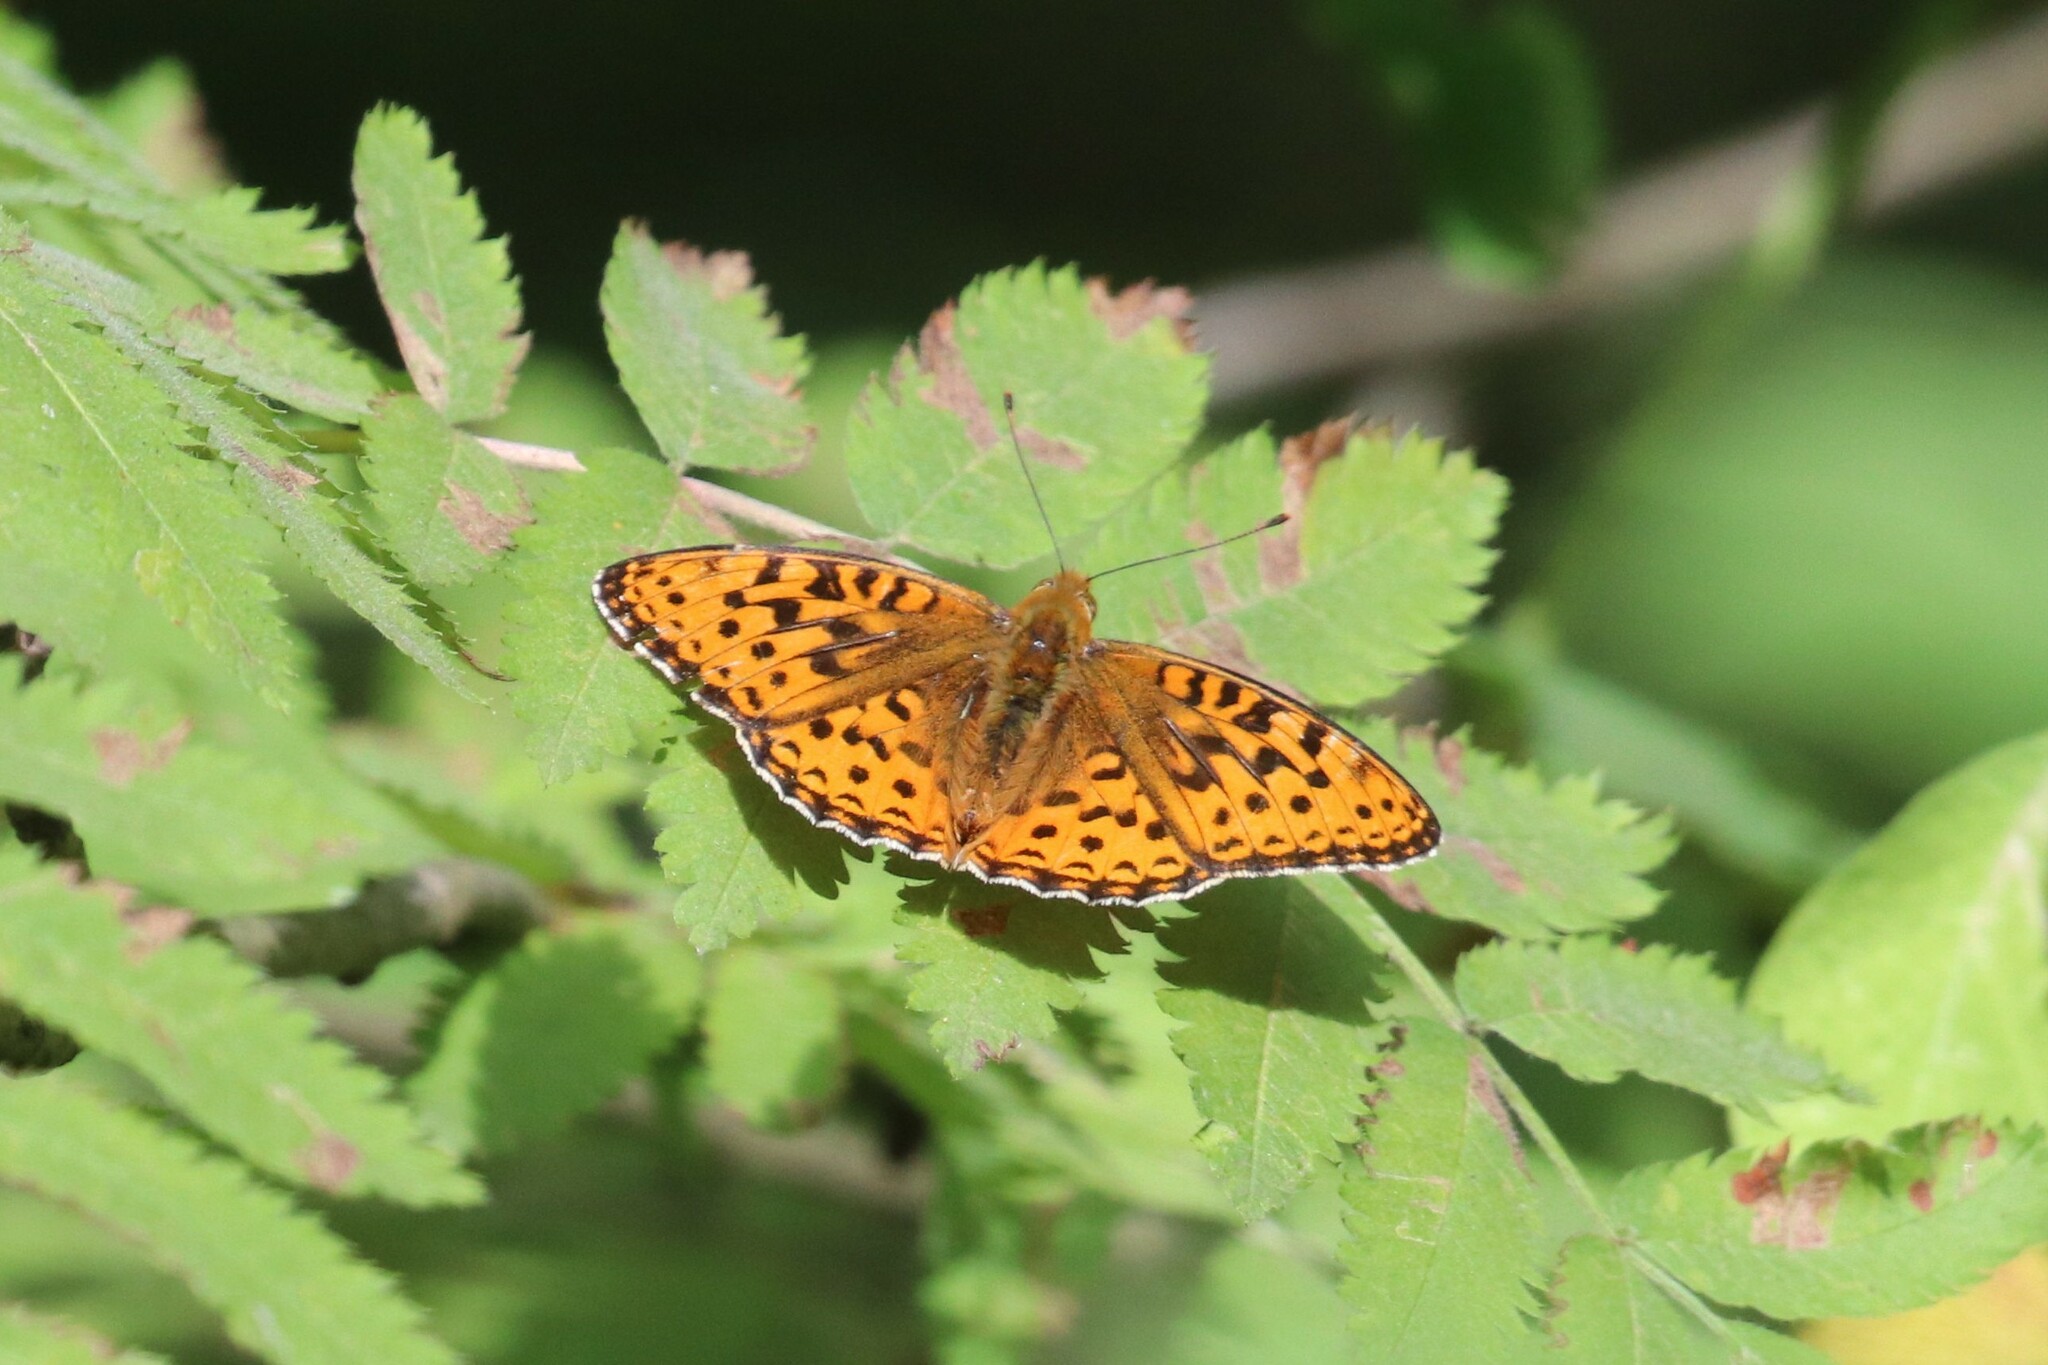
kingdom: Animalia
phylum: Arthropoda
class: Insecta
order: Lepidoptera
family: Nymphalidae
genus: Fabriciana
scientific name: Fabriciana adippe
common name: High brown fritillary
